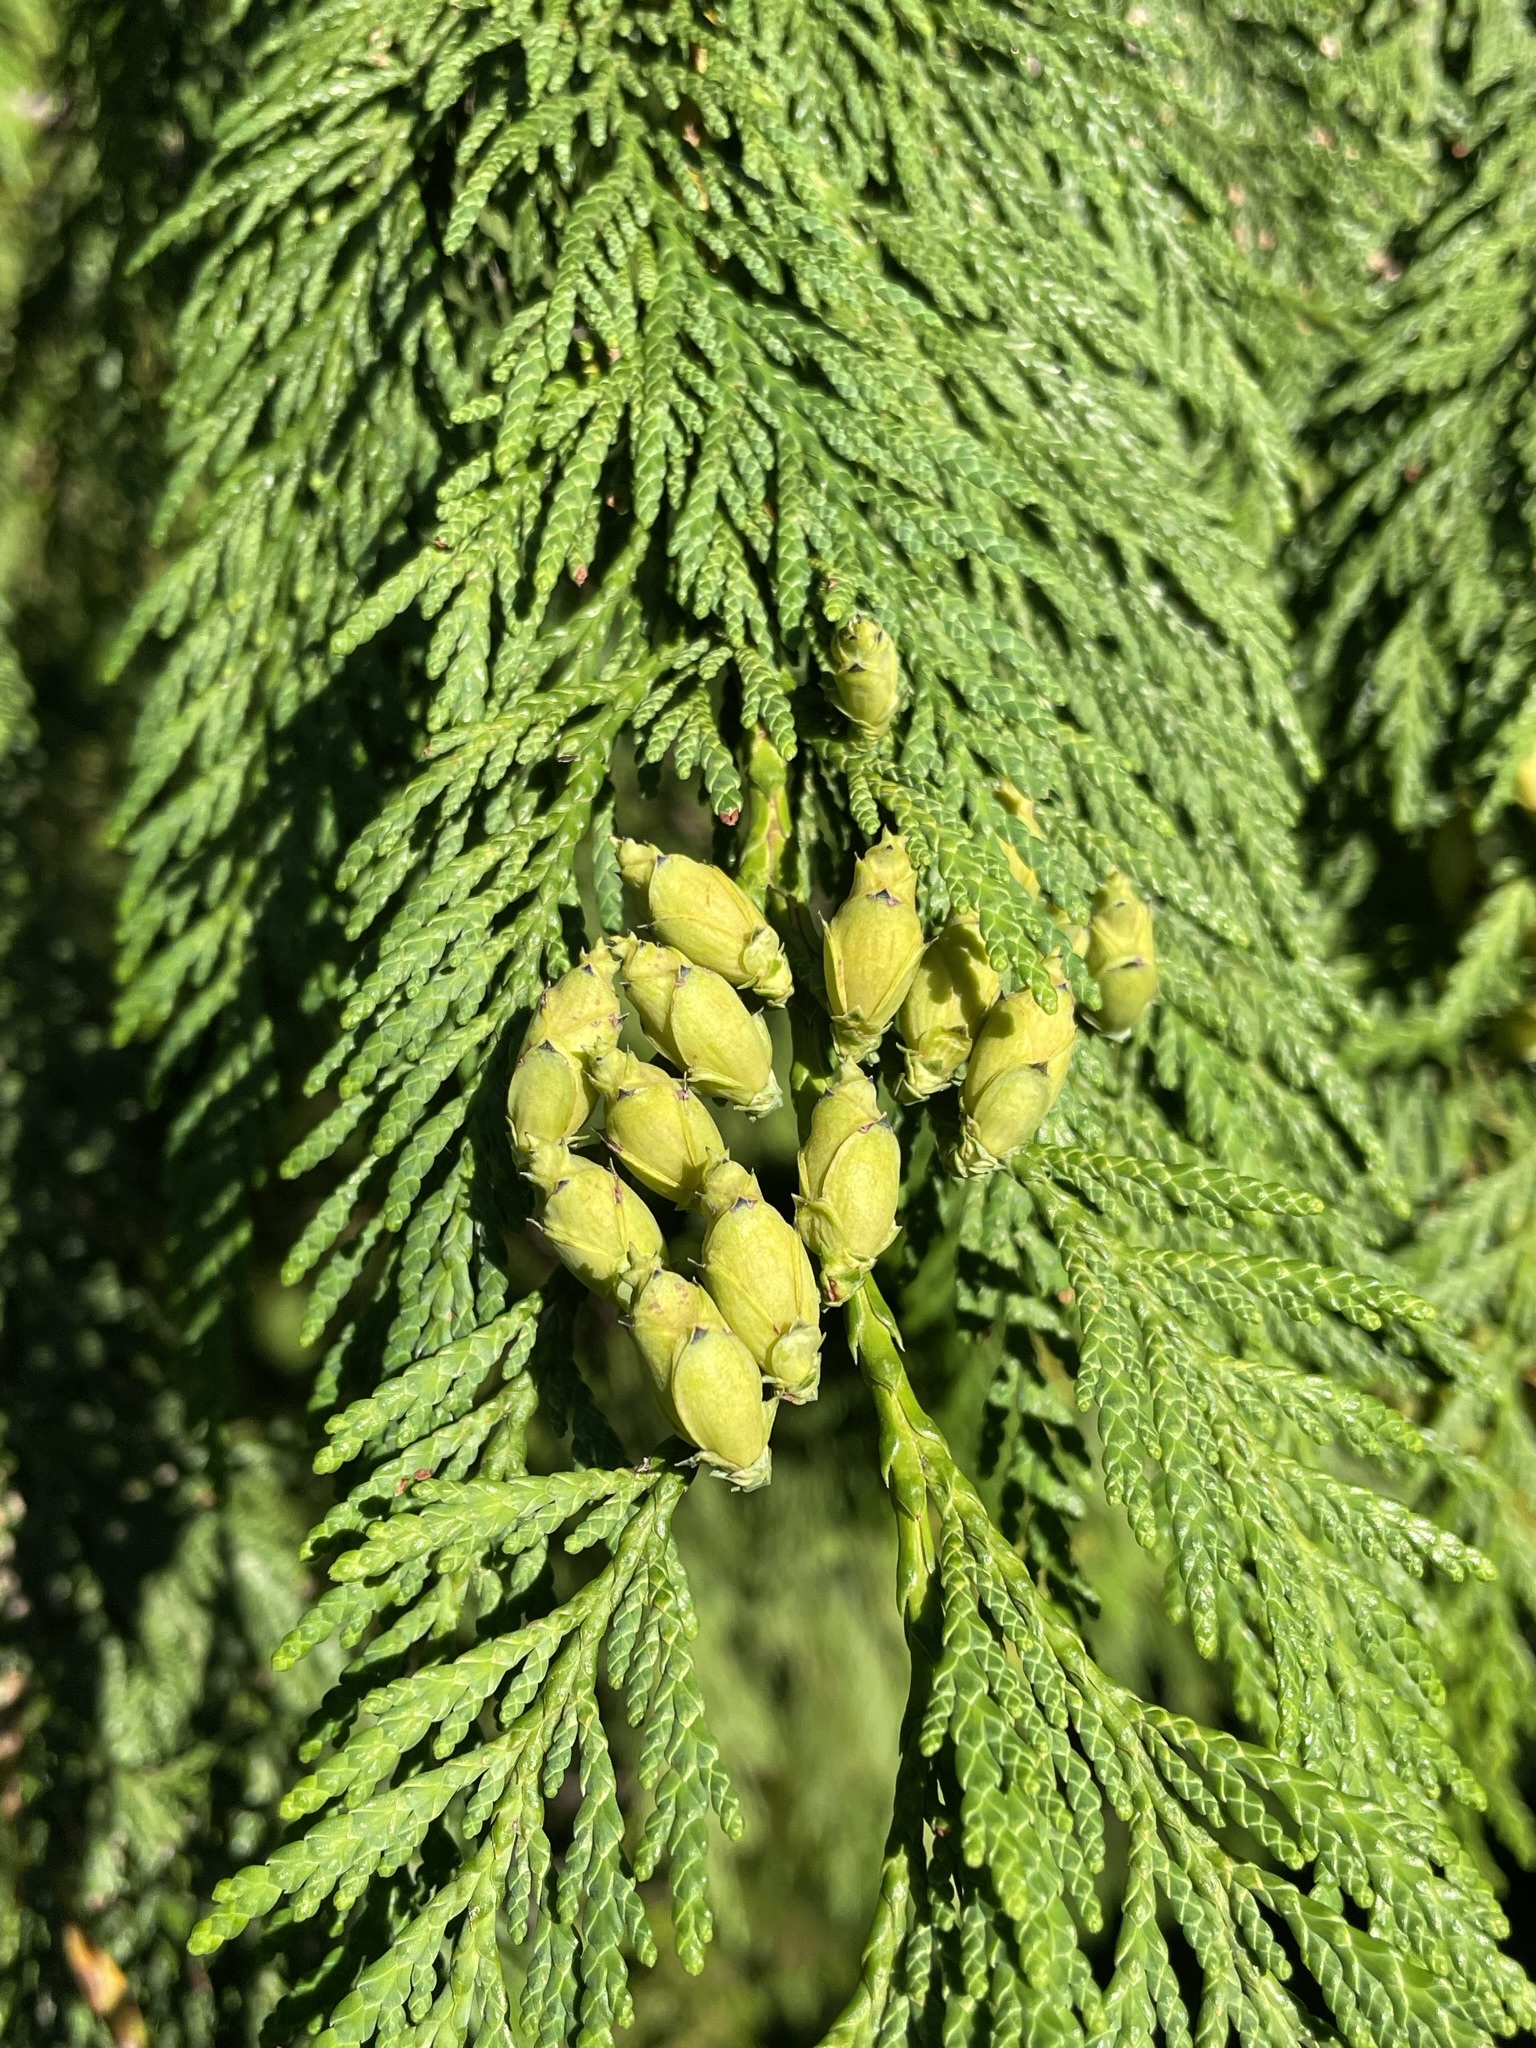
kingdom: Plantae
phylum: Tracheophyta
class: Pinopsida
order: Pinales
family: Cupressaceae
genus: Thuja
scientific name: Thuja plicata
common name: Western red-cedar
